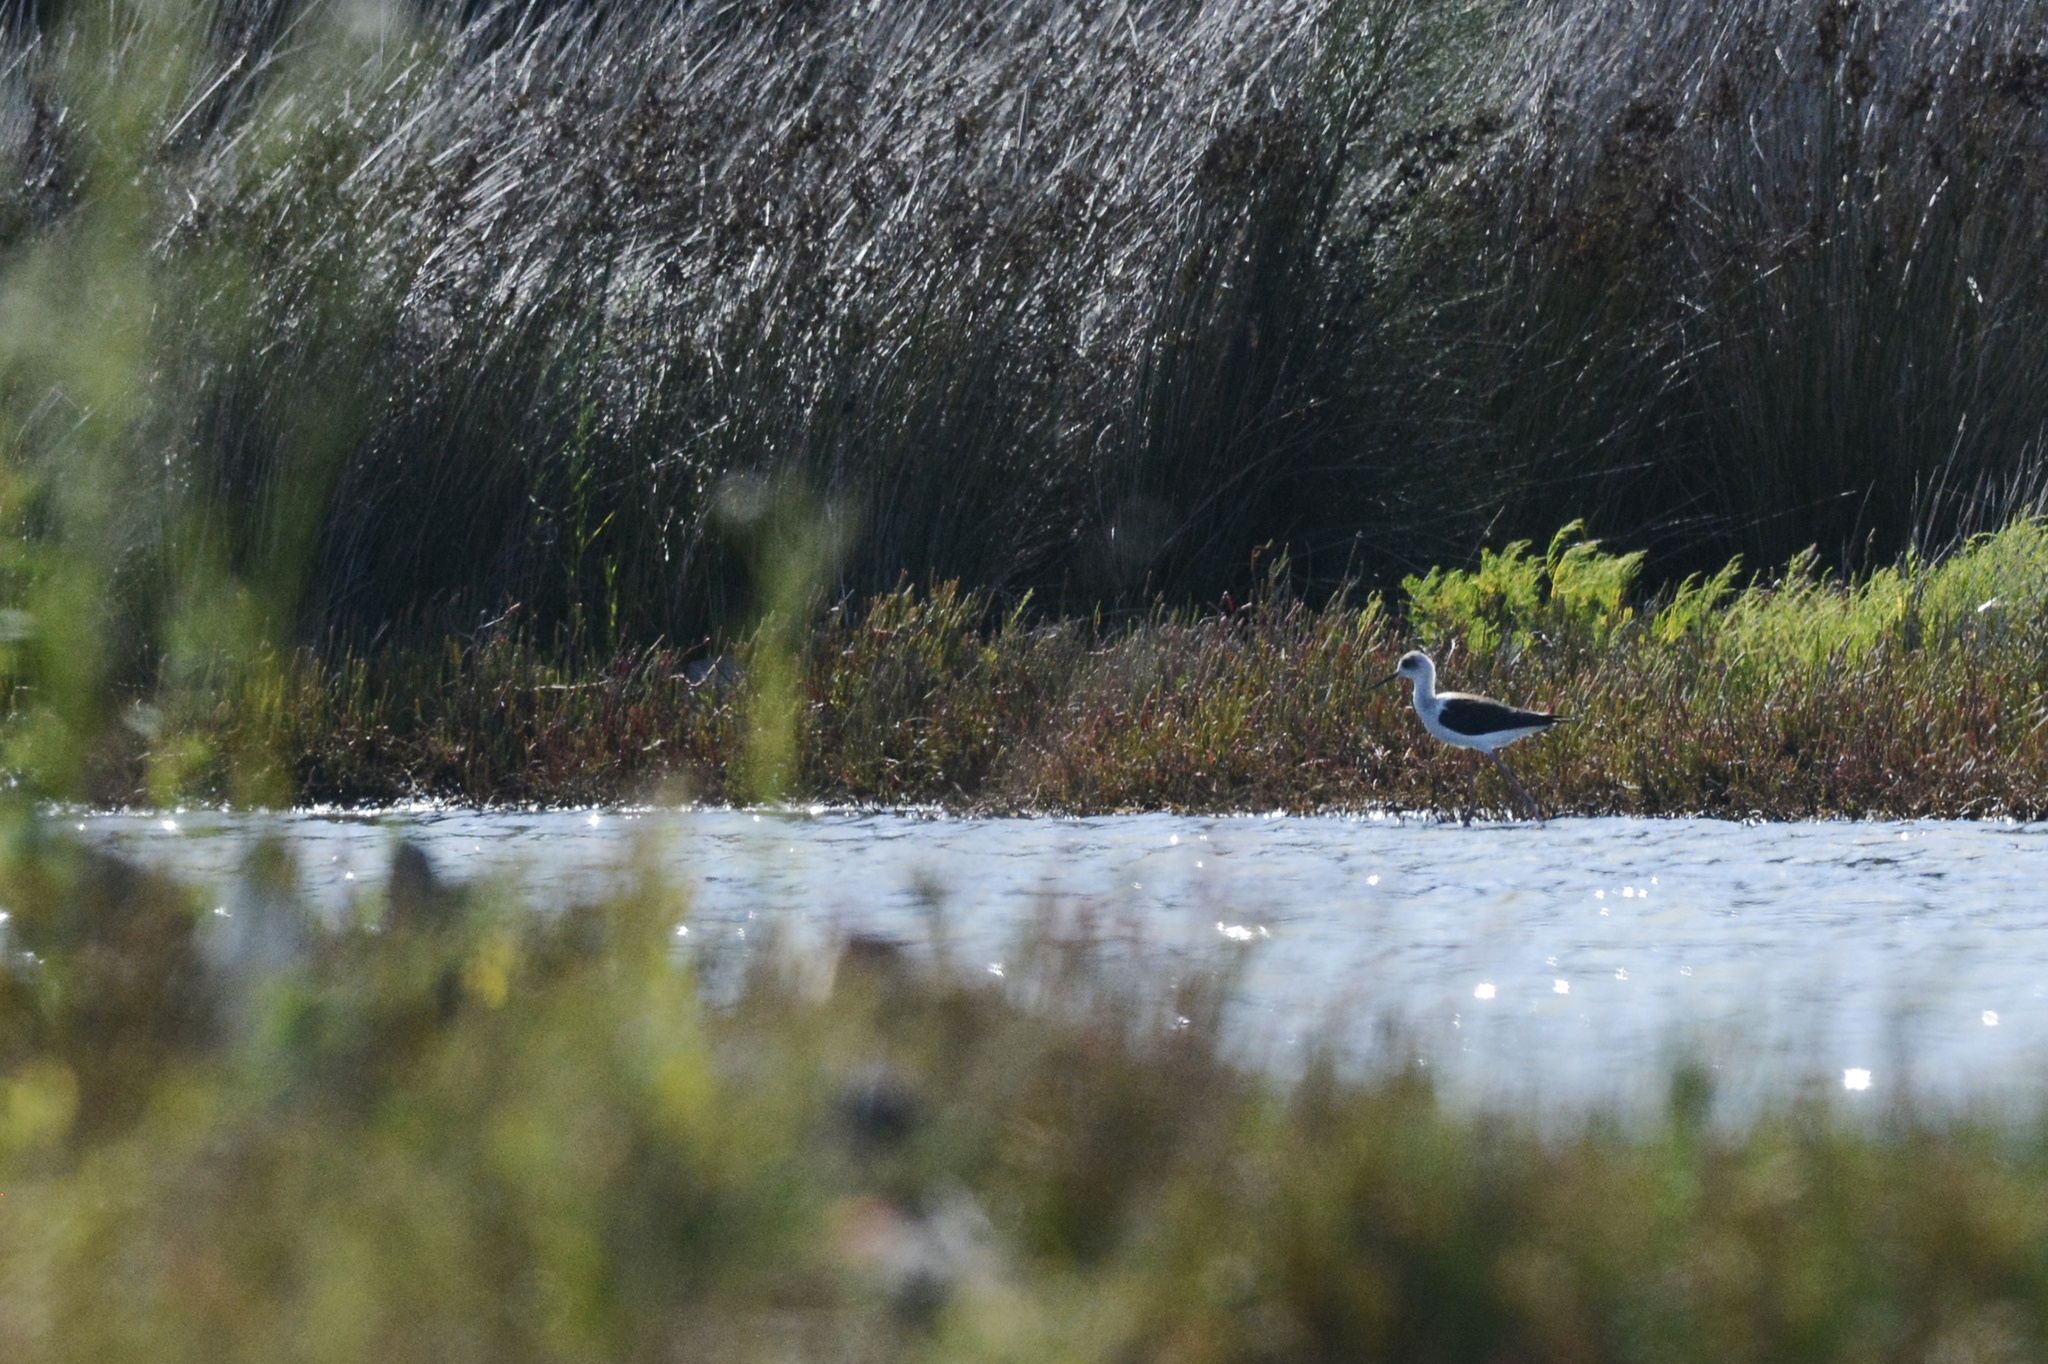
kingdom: Animalia
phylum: Chordata
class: Aves
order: Charadriiformes
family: Recurvirostridae
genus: Himantopus
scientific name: Himantopus leucocephalus
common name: White-headed stilt
